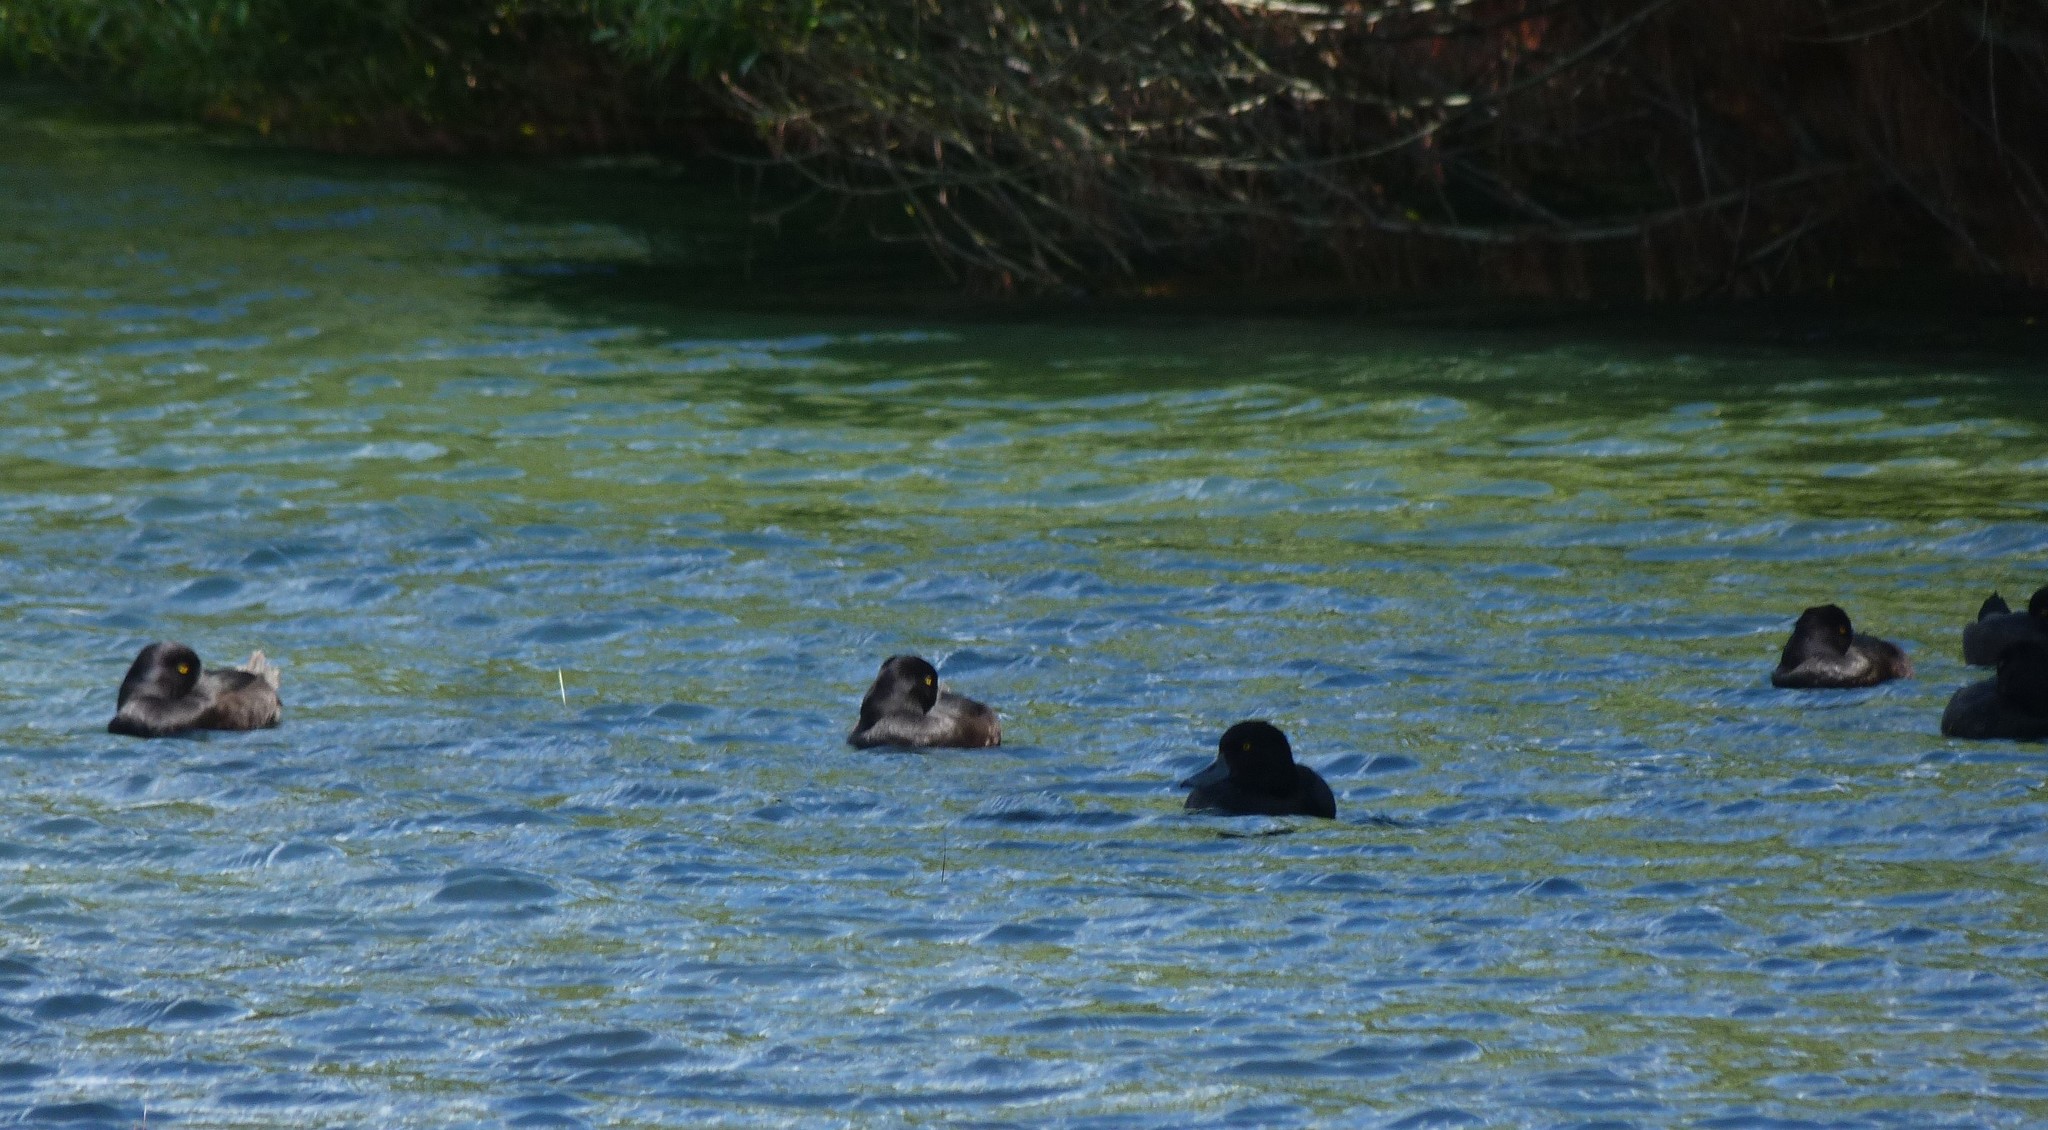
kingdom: Animalia
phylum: Chordata
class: Aves
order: Anseriformes
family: Anatidae
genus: Aythya
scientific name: Aythya novaeseelandiae
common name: New zealand scaup
